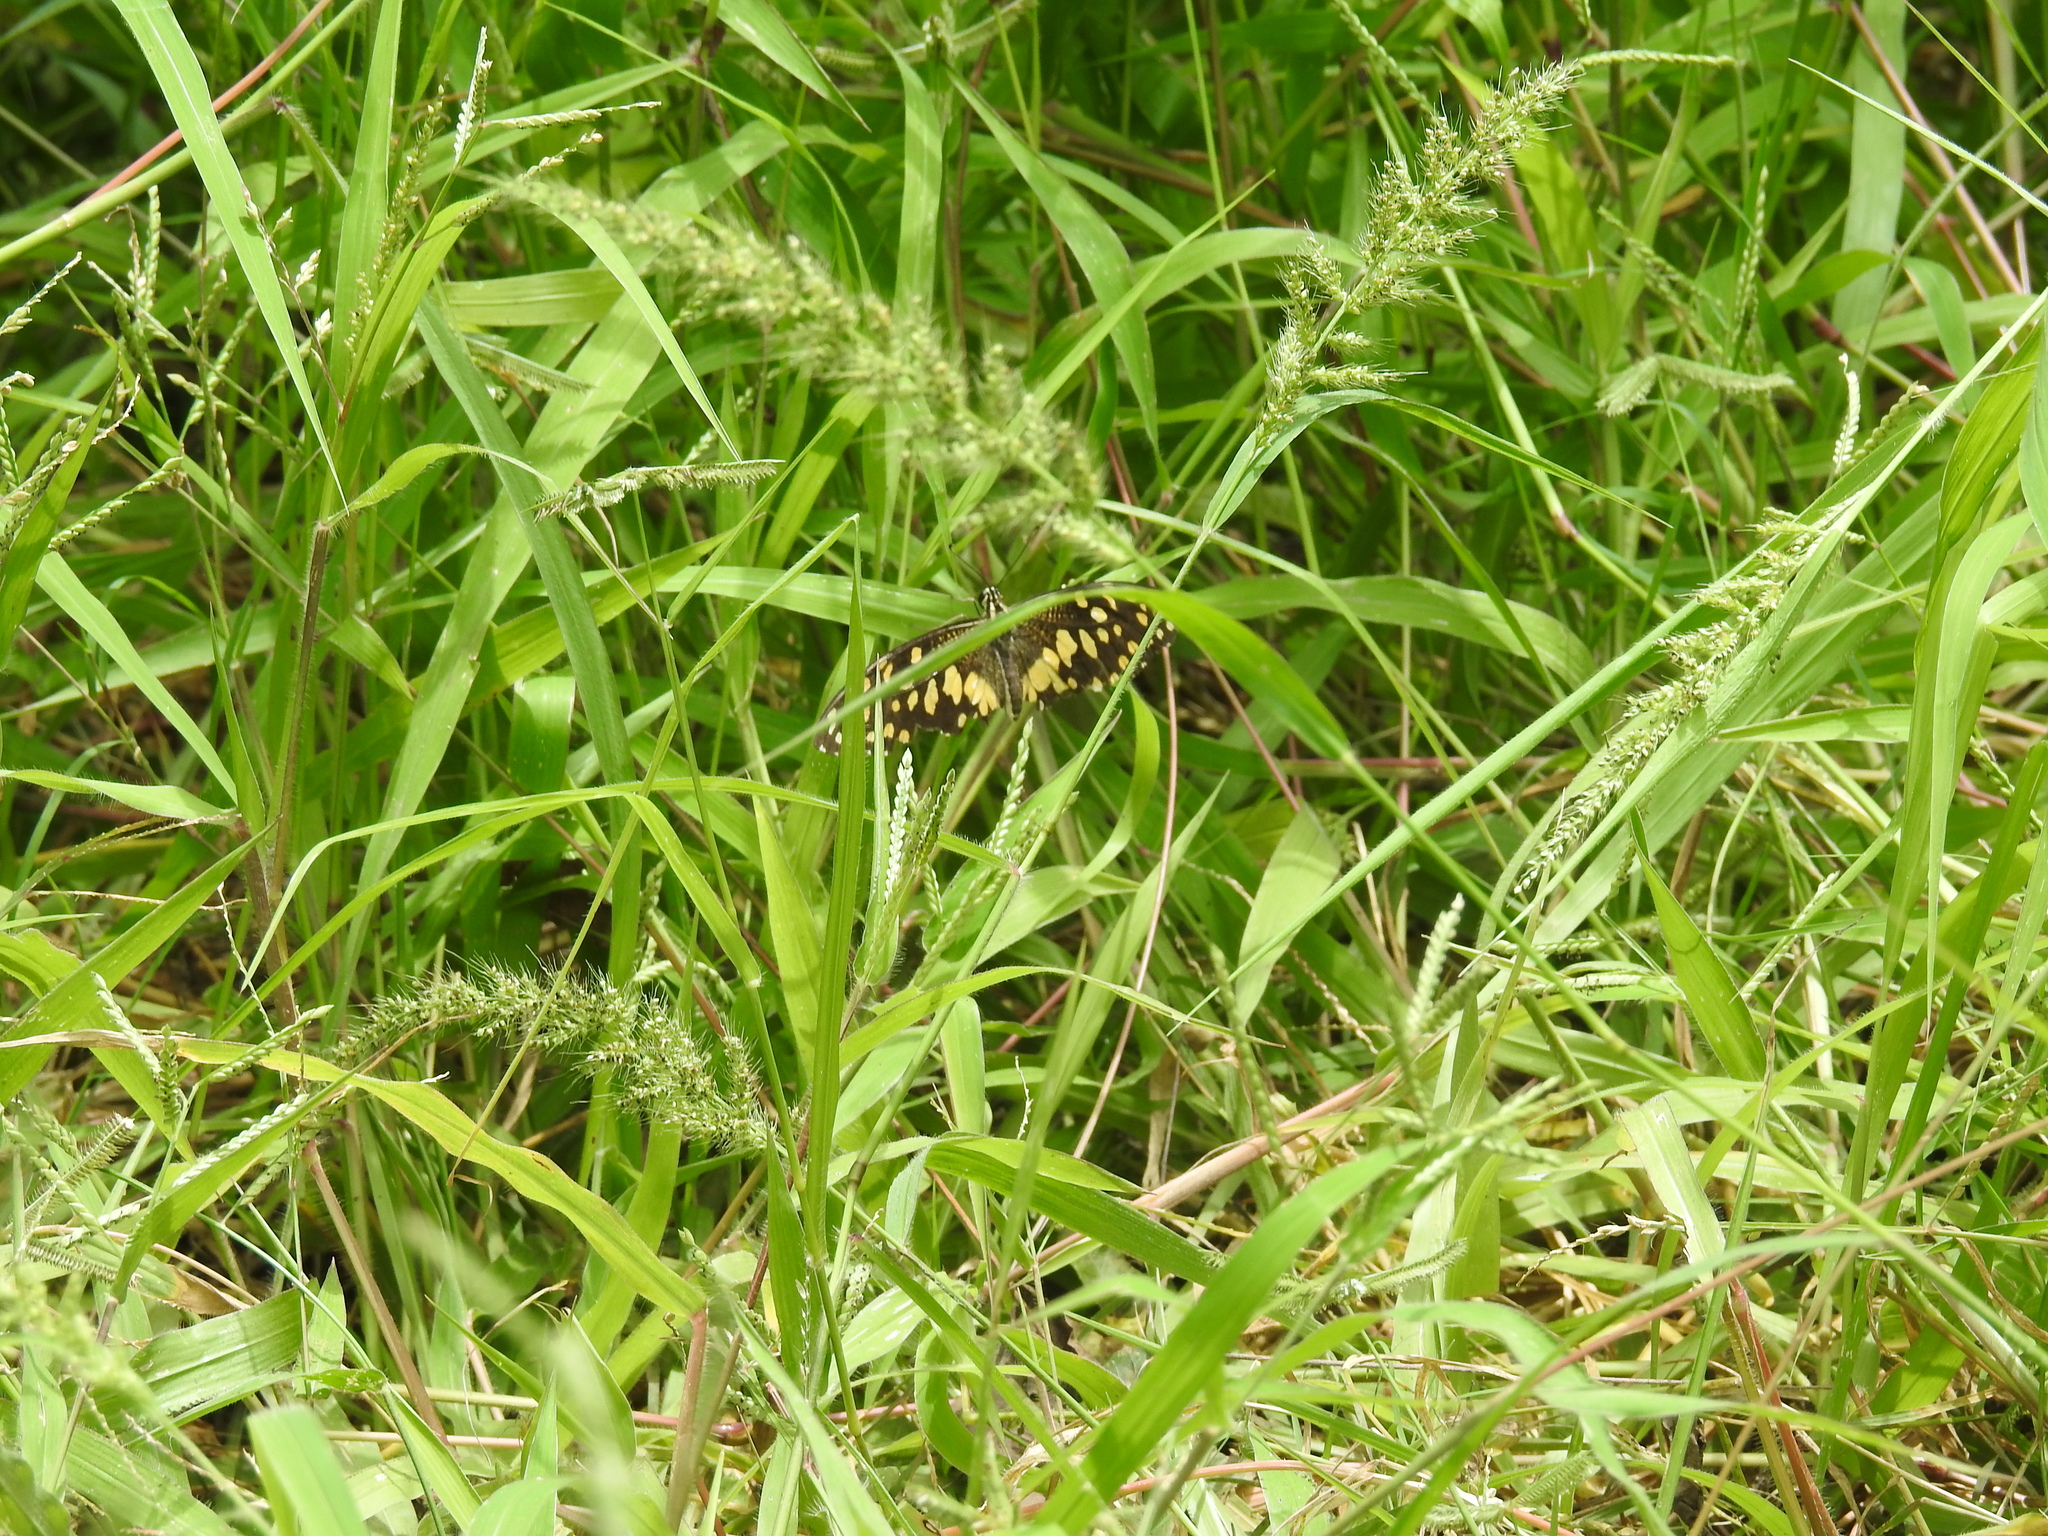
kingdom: Animalia
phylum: Arthropoda
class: Insecta
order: Lepidoptera
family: Papilionidae
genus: Papilio
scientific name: Papilio demoleus
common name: Lime butterfly
